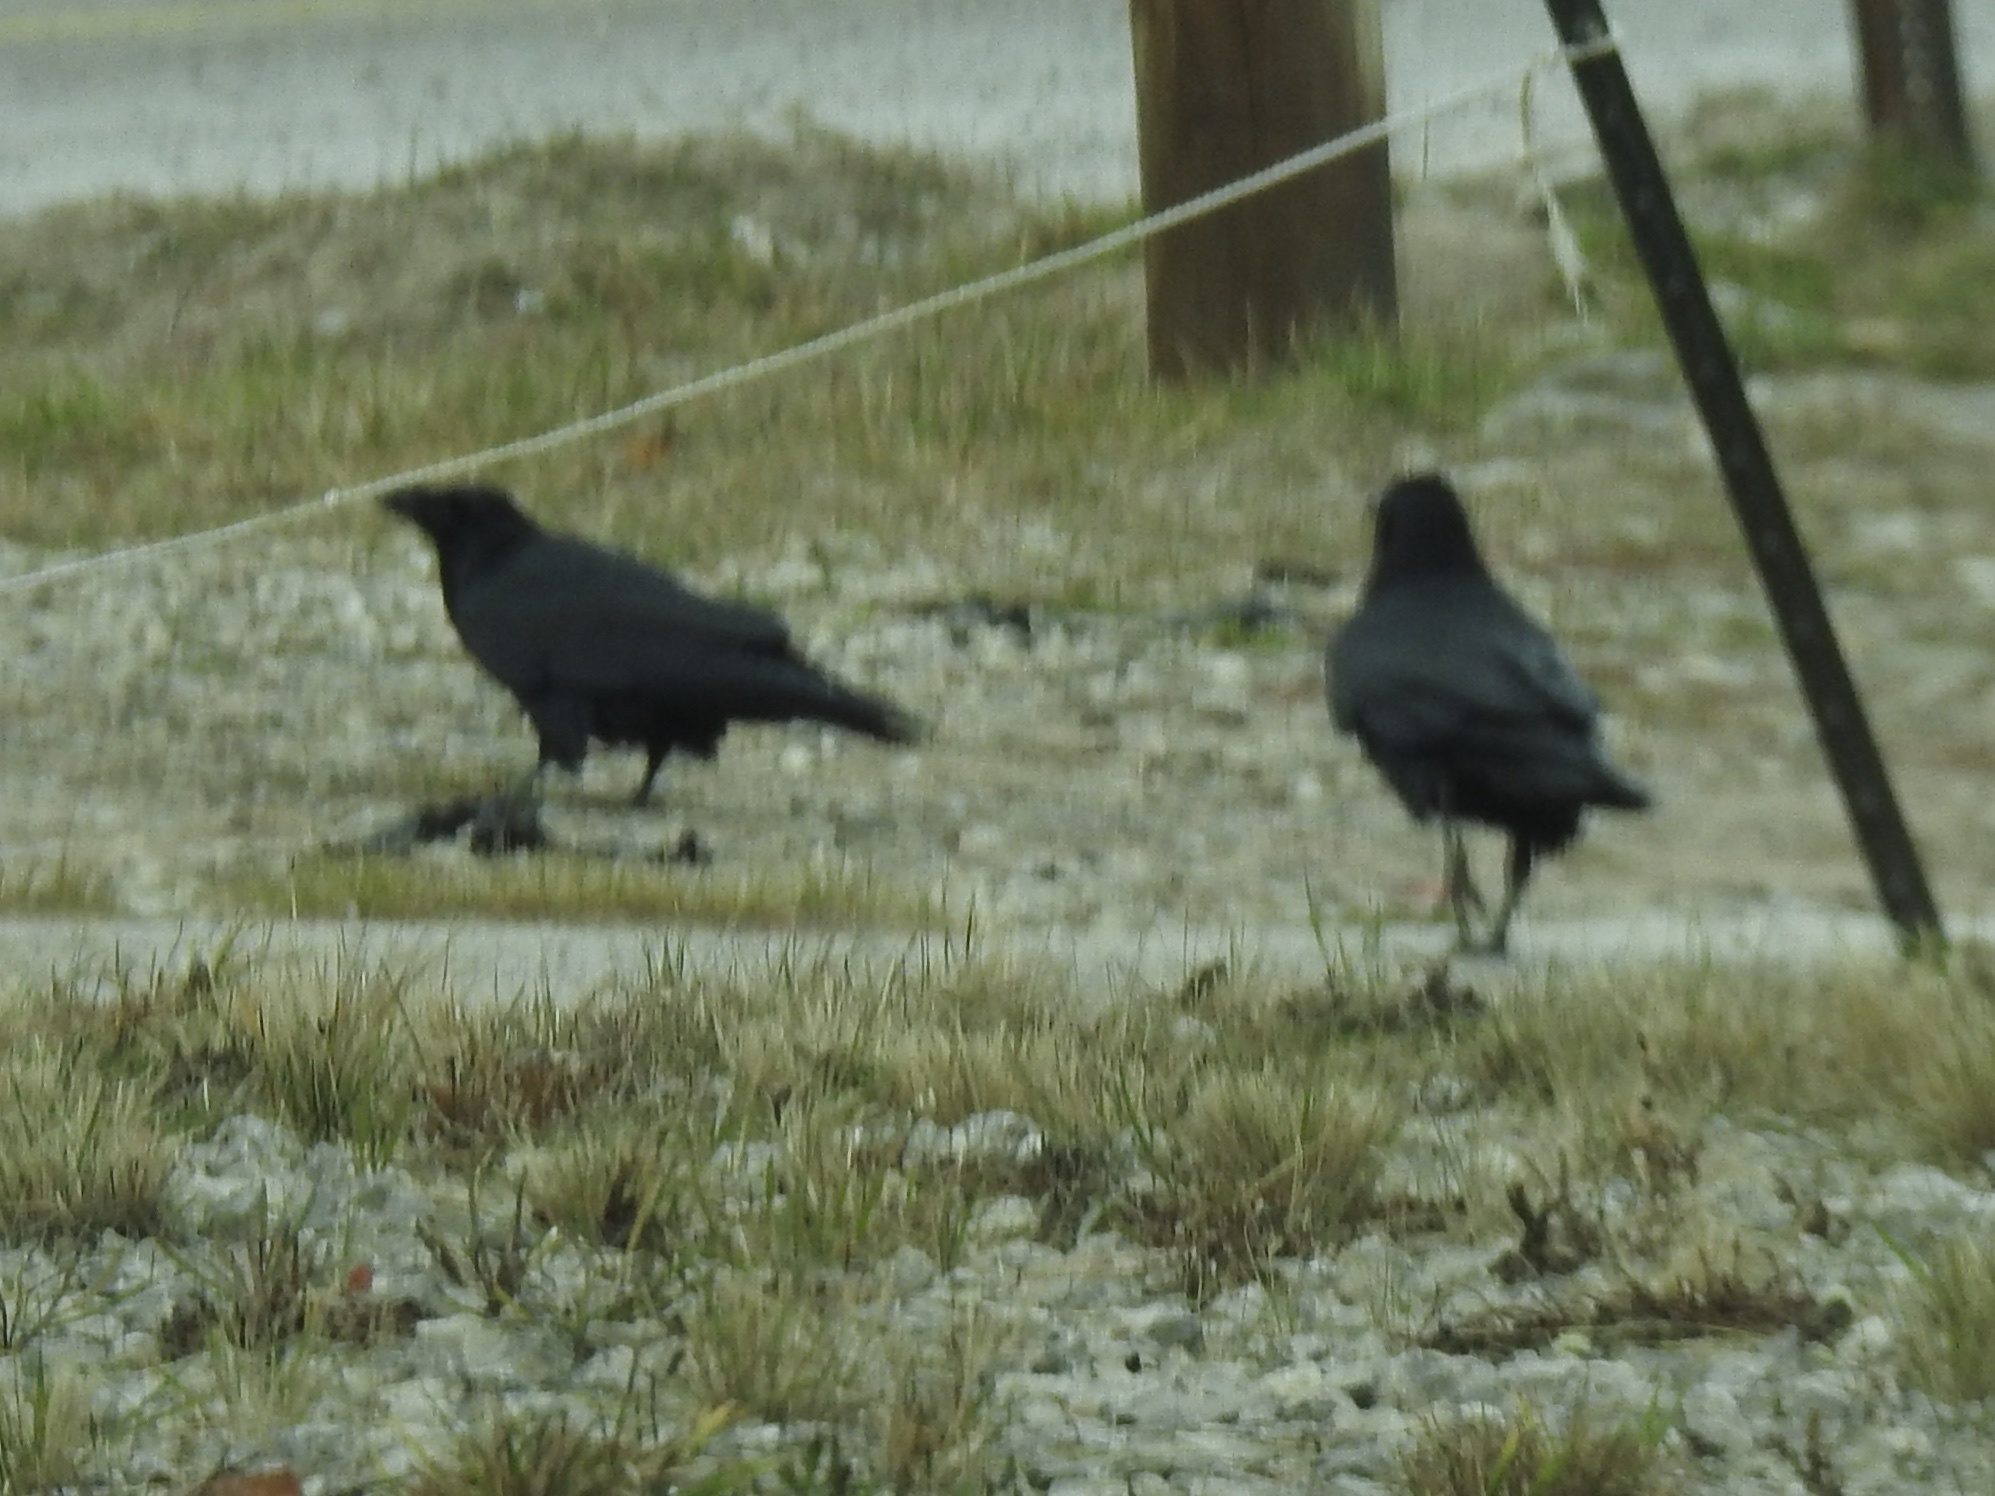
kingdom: Animalia
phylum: Chordata
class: Aves
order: Passeriformes
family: Corvidae
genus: Corvus
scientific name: Corvus corax
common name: Common raven
